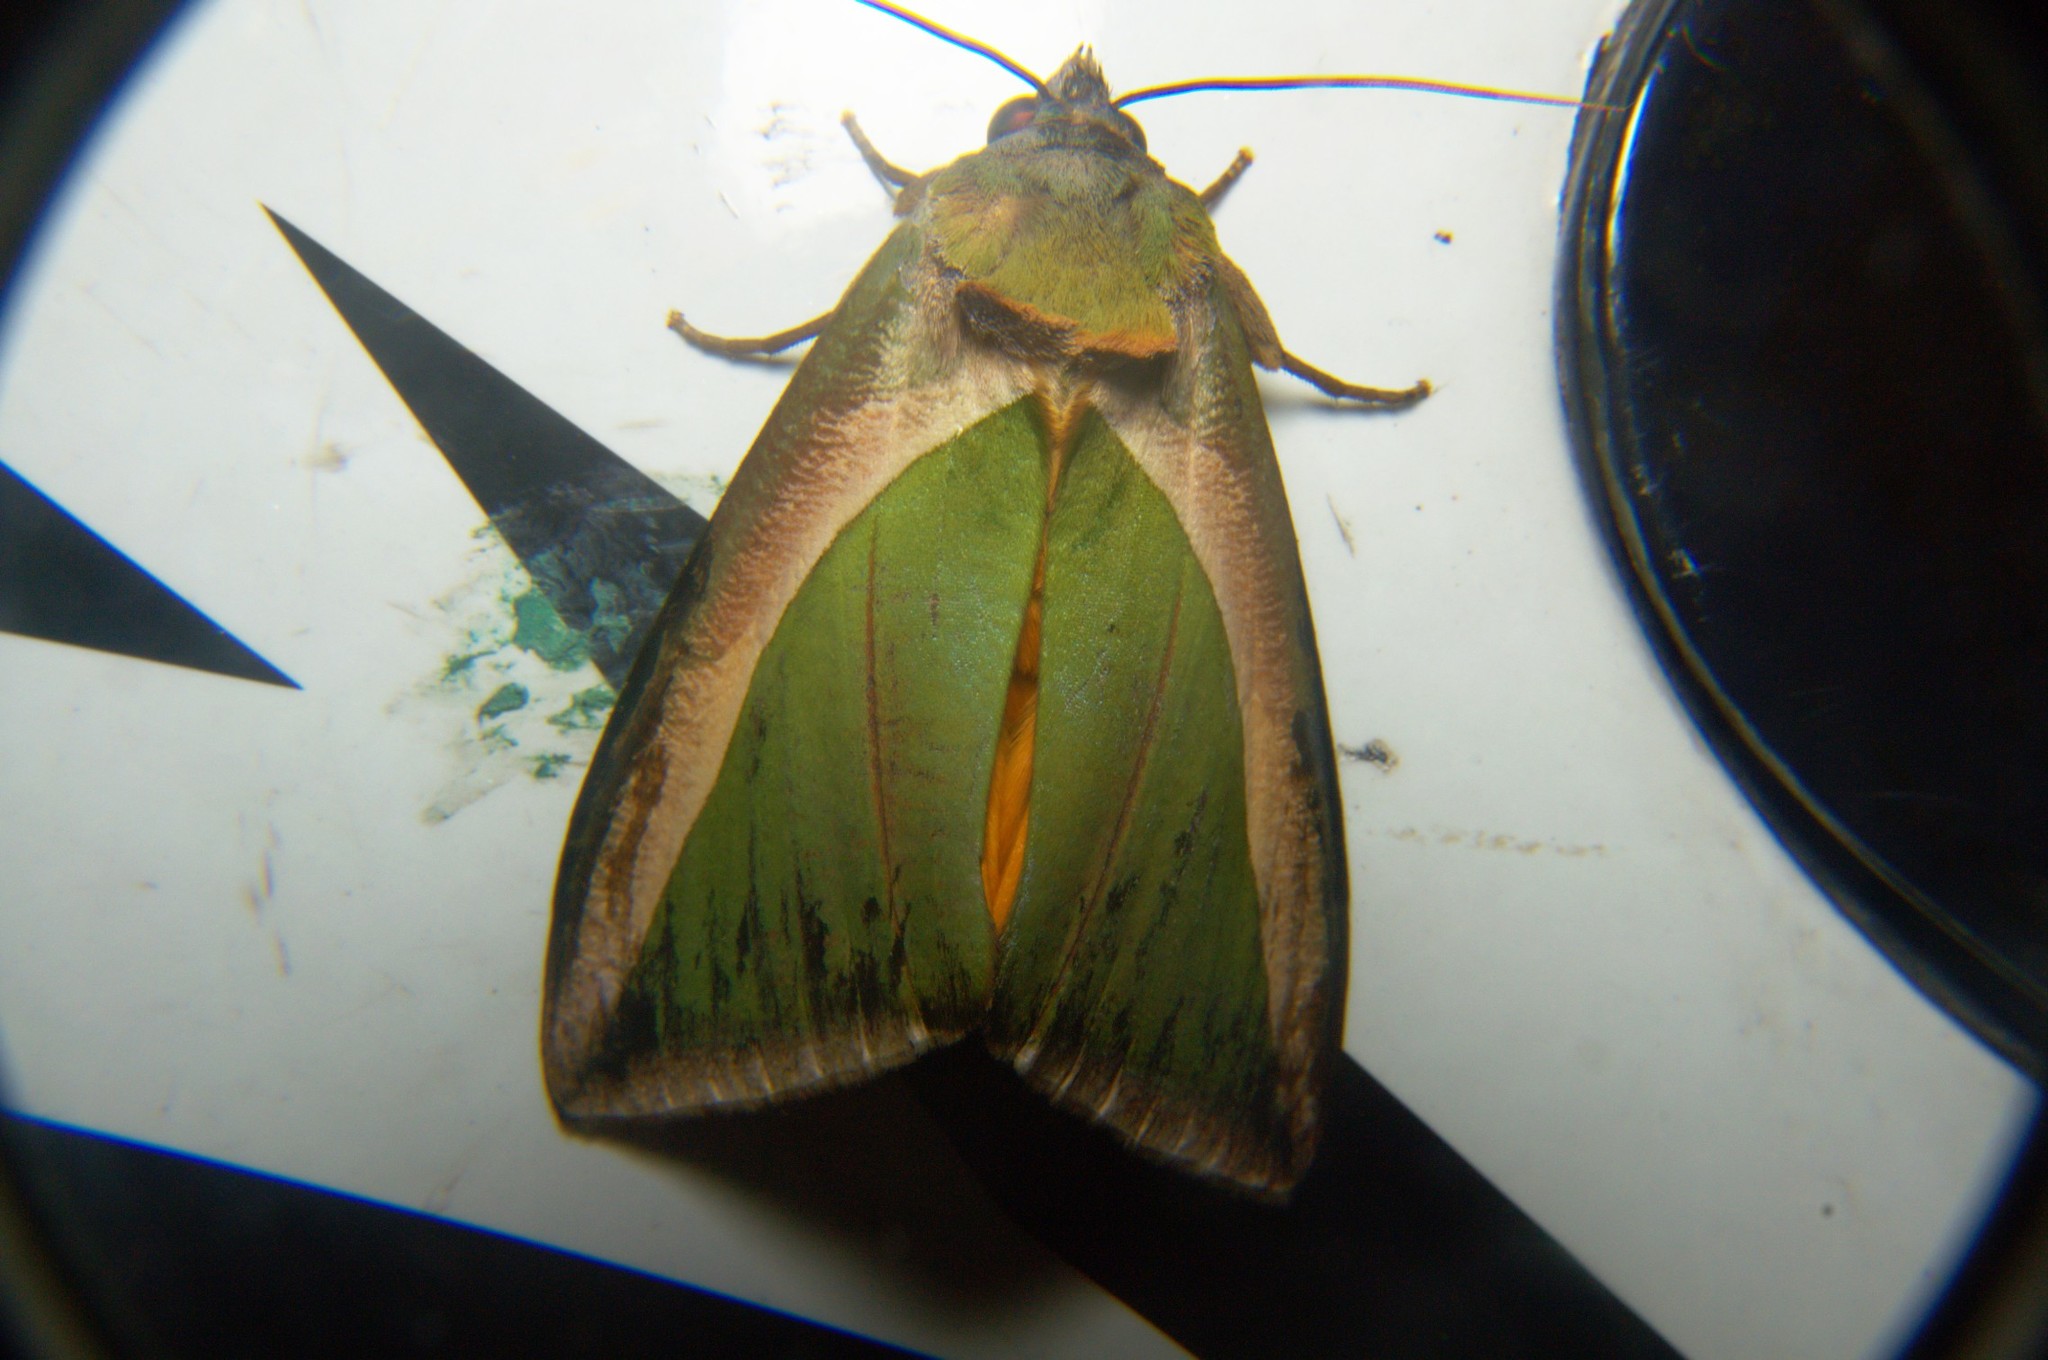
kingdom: Animalia
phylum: Arthropoda
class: Insecta
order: Lepidoptera
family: Erebidae
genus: Eudocima
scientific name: Eudocima salaminia
